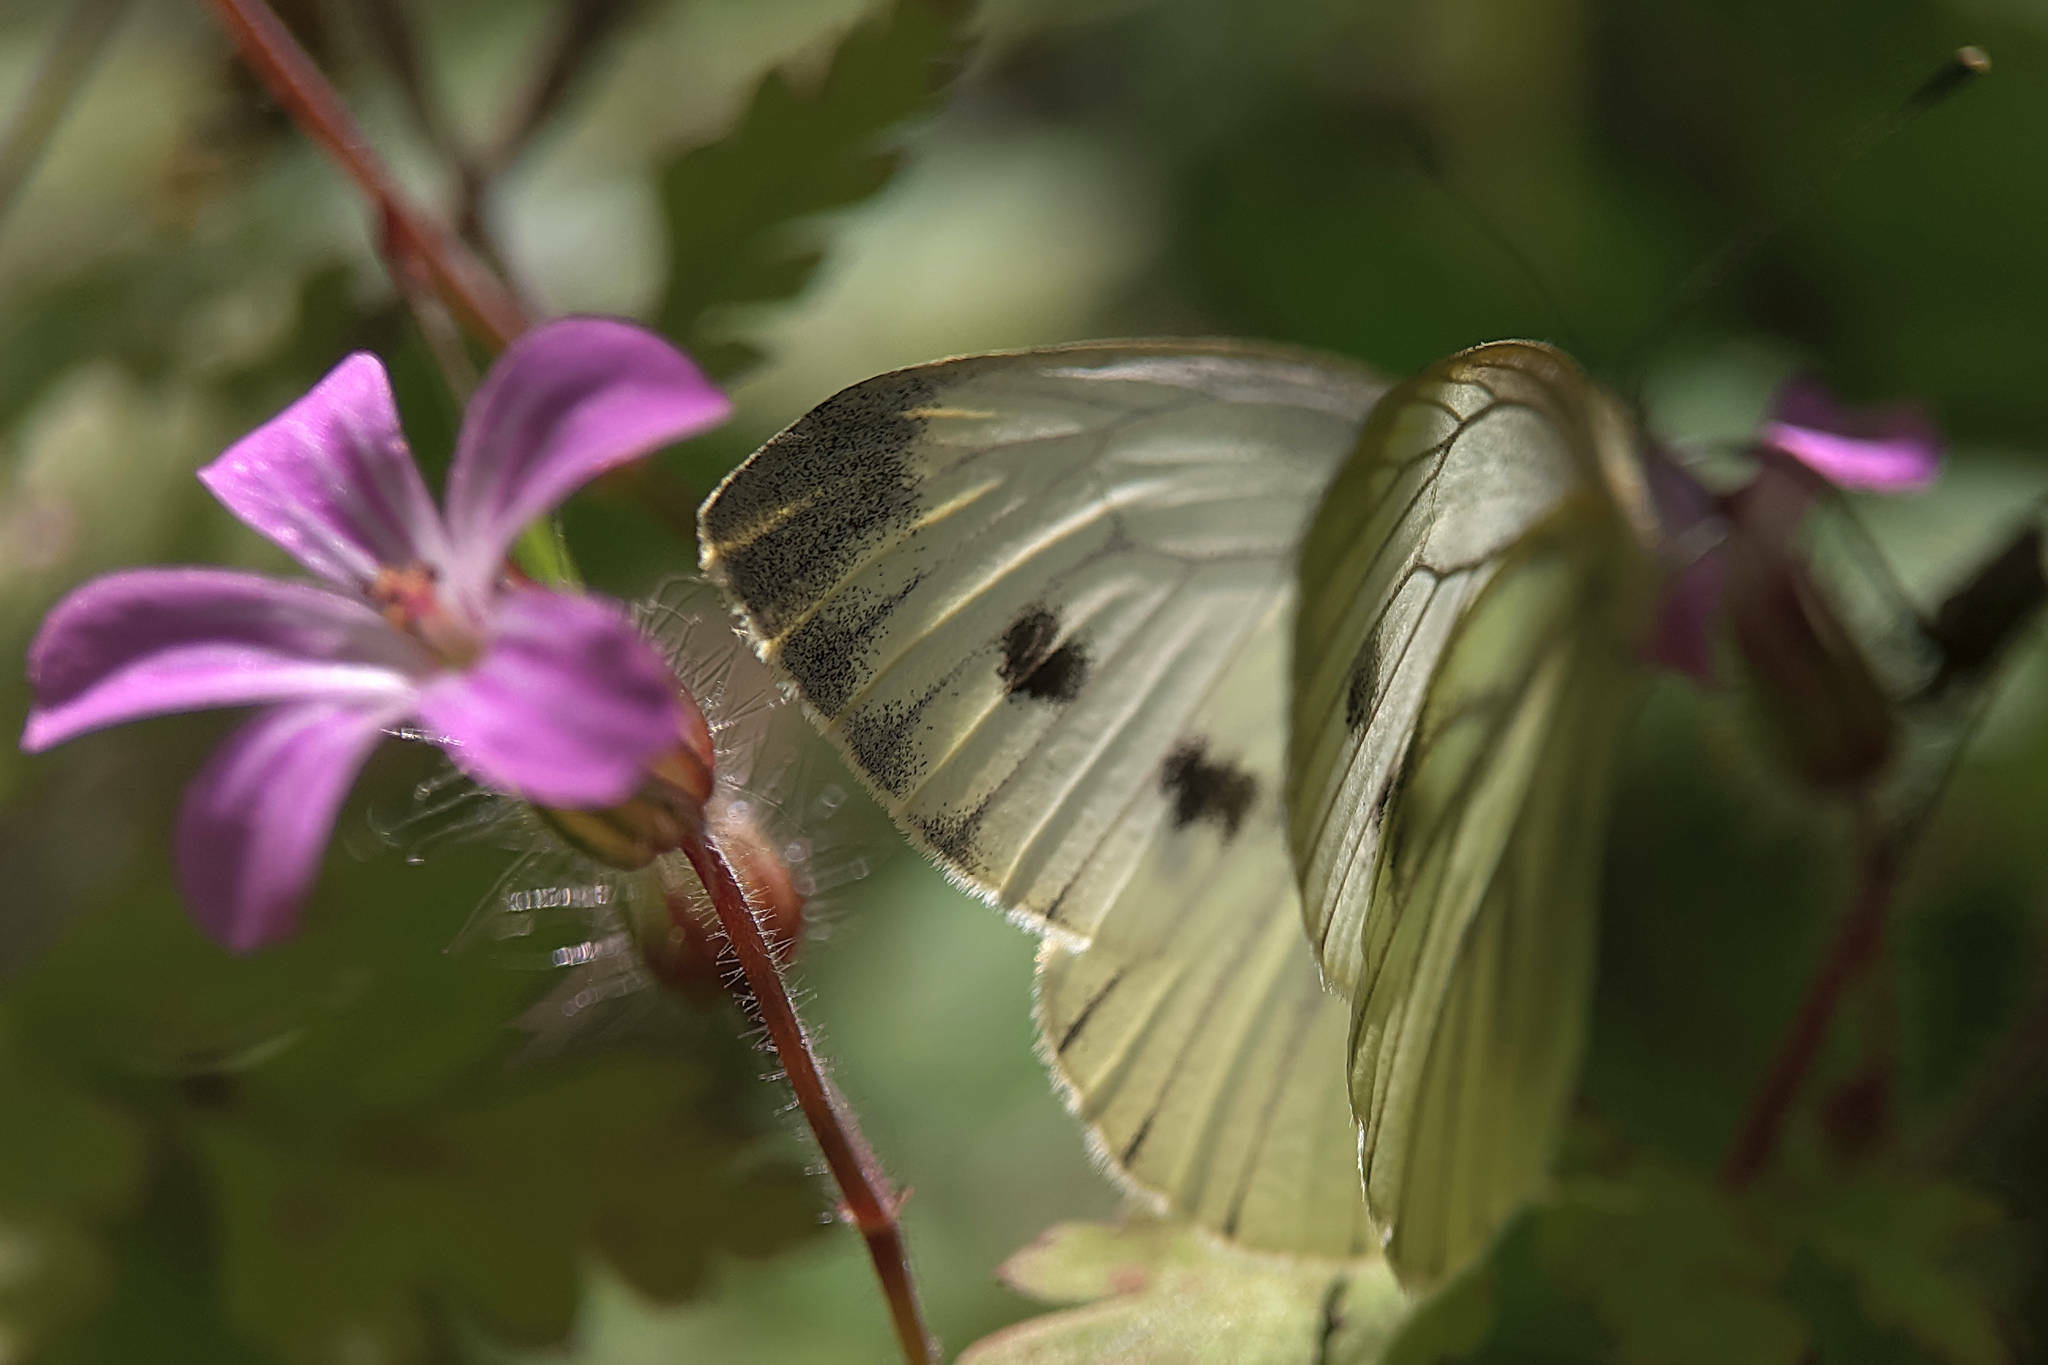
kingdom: Animalia
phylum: Arthropoda
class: Insecta
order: Lepidoptera
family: Pieridae
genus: Pieris
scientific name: Pieris napi
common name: Green-veined white
